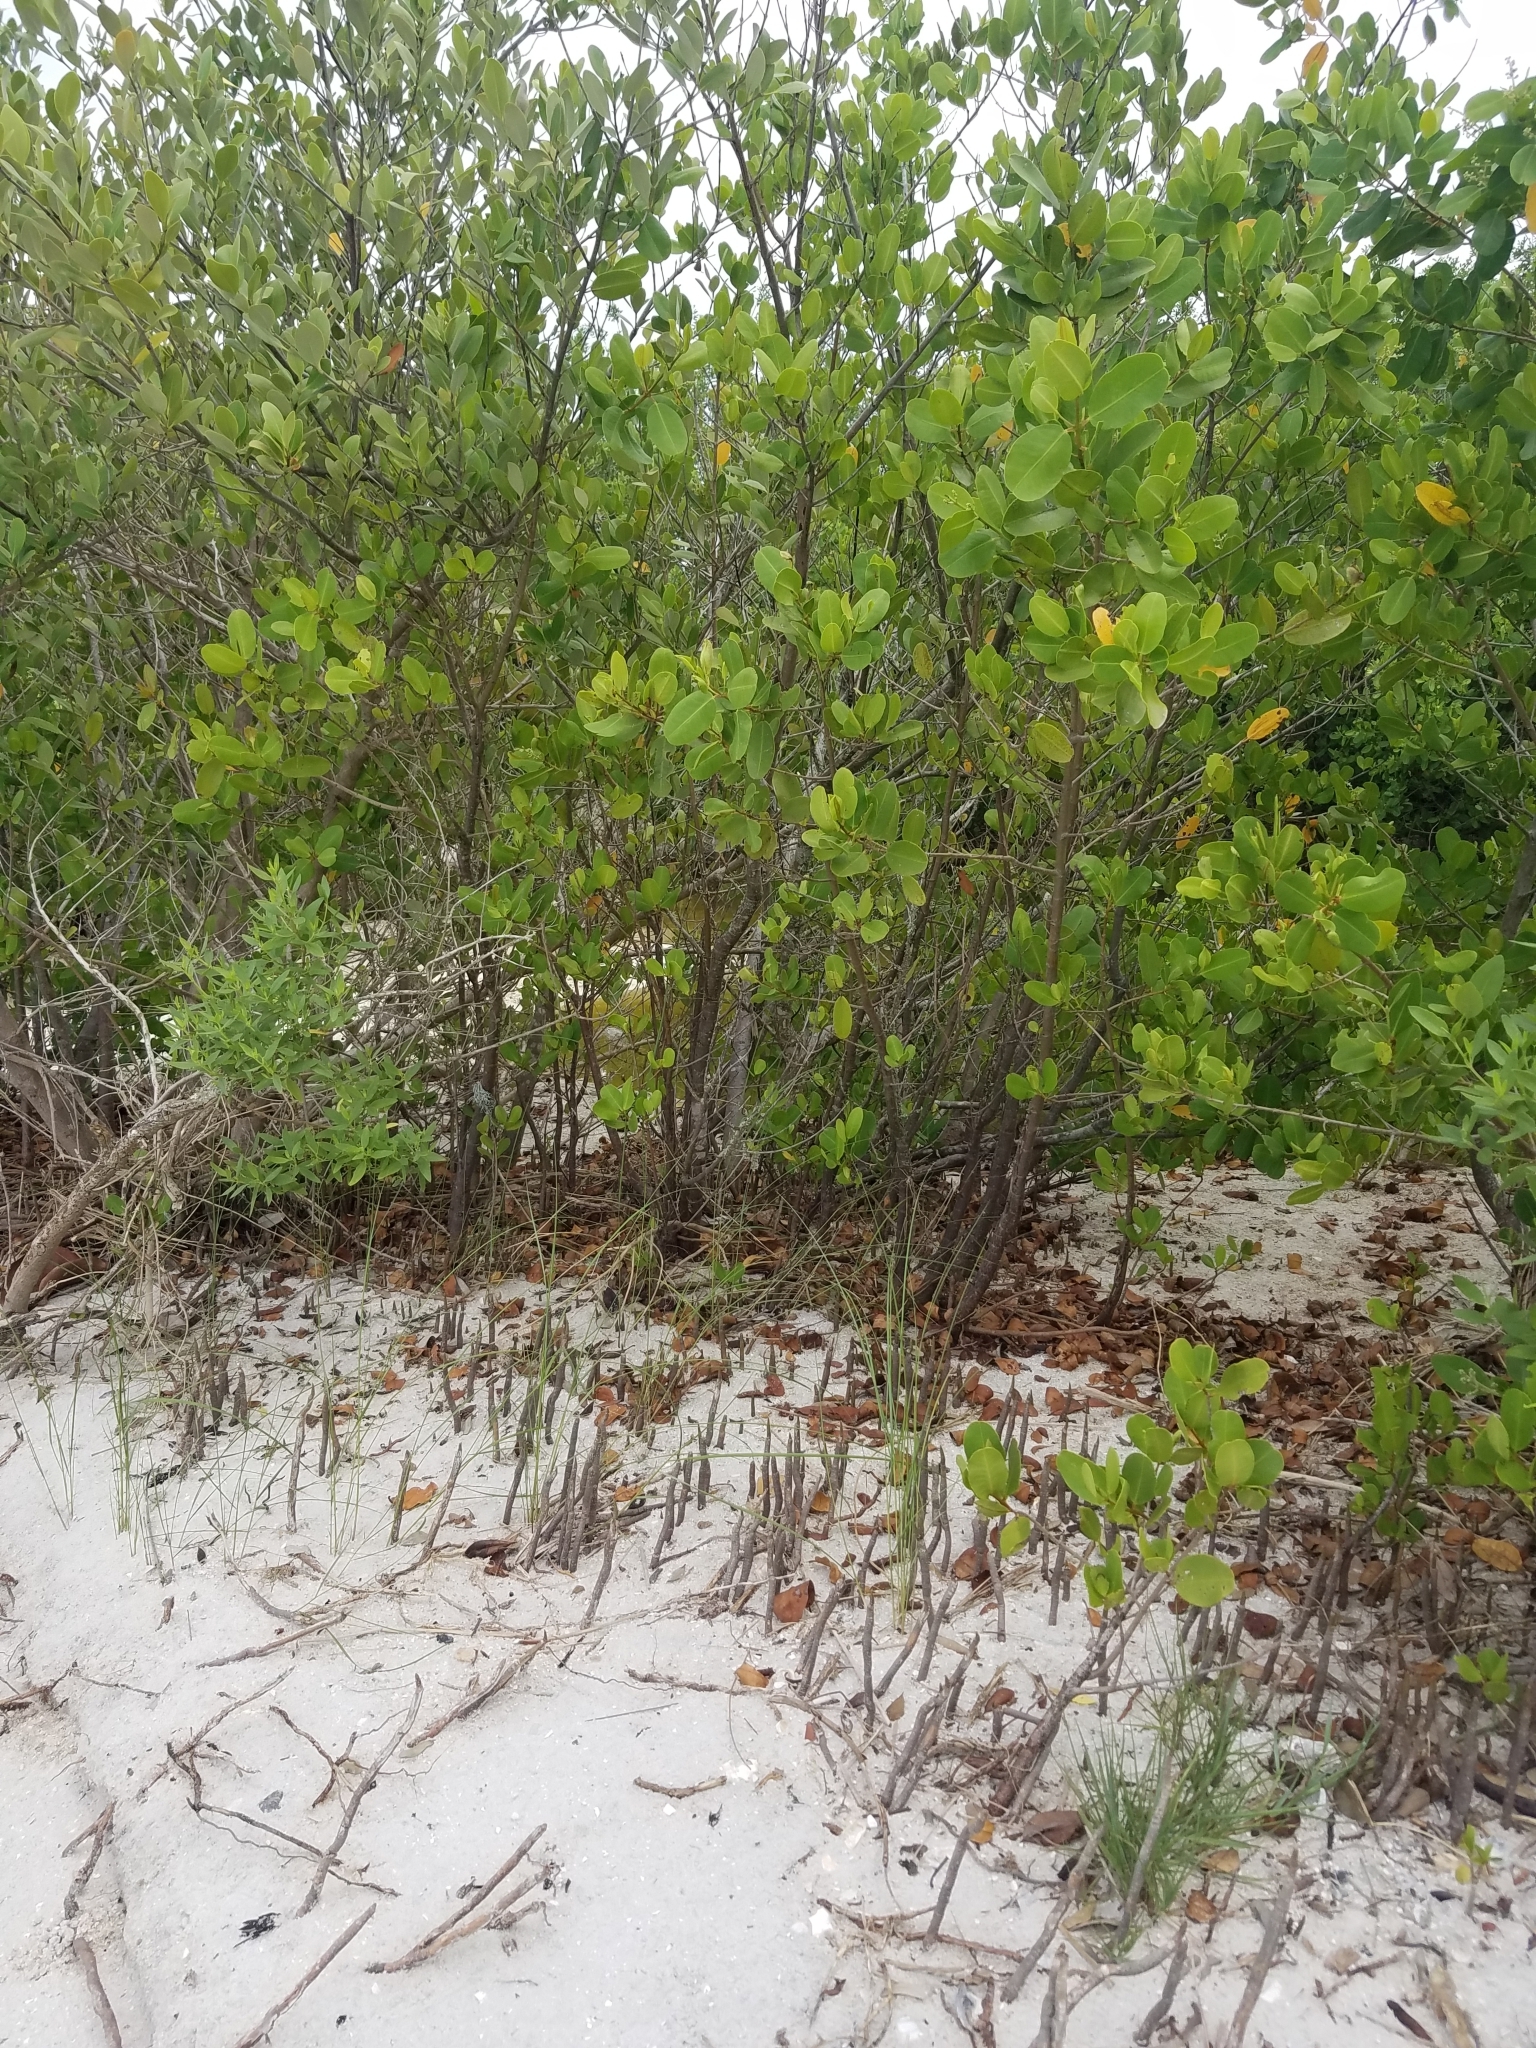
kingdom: Plantae
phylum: Tracheophyta
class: Magnoliopsida
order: Lamiales
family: Acanthaceae
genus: Avicennia
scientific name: Avicennia germinans
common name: Black mangrove
